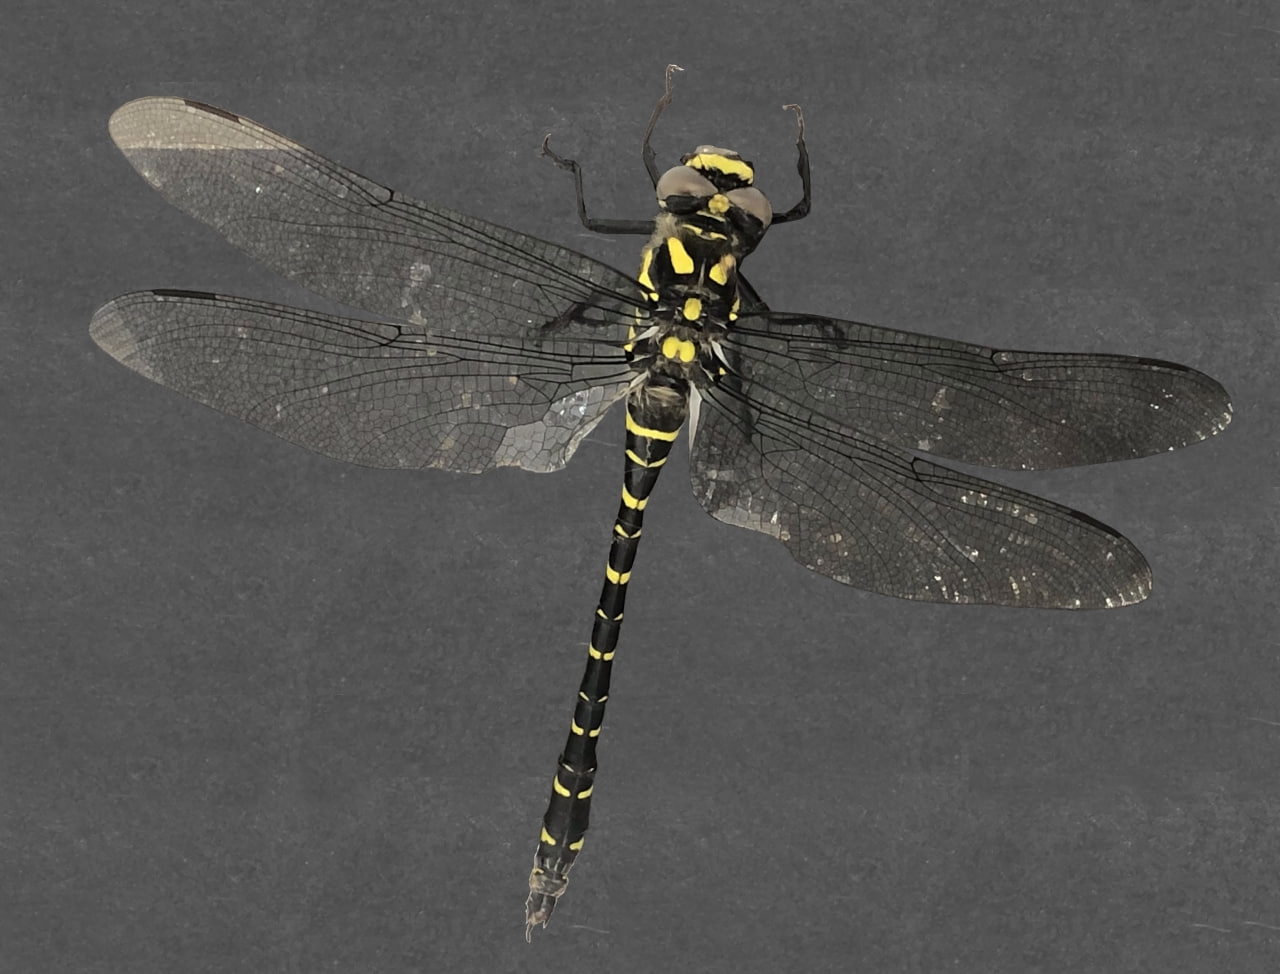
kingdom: Animalia
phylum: Arthropoda
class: Insecta
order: Odonata
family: Cordulegastridae
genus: Cordulegaster
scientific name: Cordulegaster boltonii
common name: Golden-ringed dragonfly
